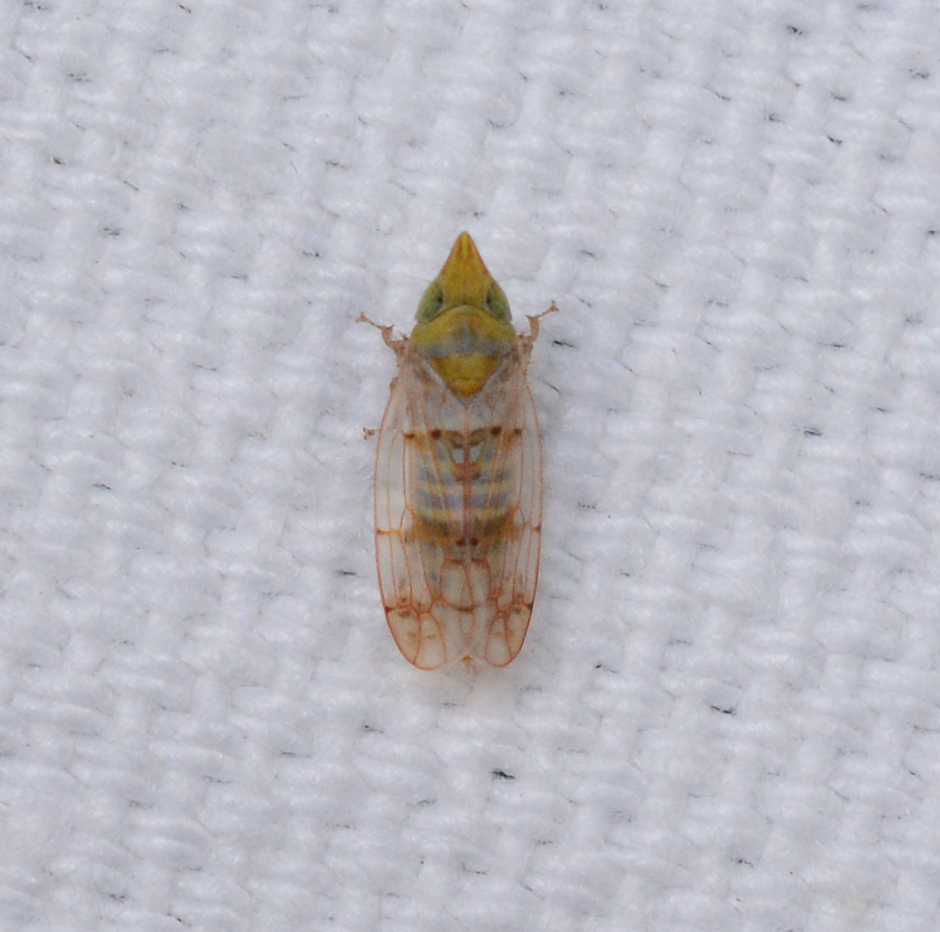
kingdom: Animalia
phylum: Arthropoda
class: Insecta
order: Hemiptera
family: Cicadellidae
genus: Japananus
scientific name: Japananus hyalinus
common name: The japanese maple leafhopper
